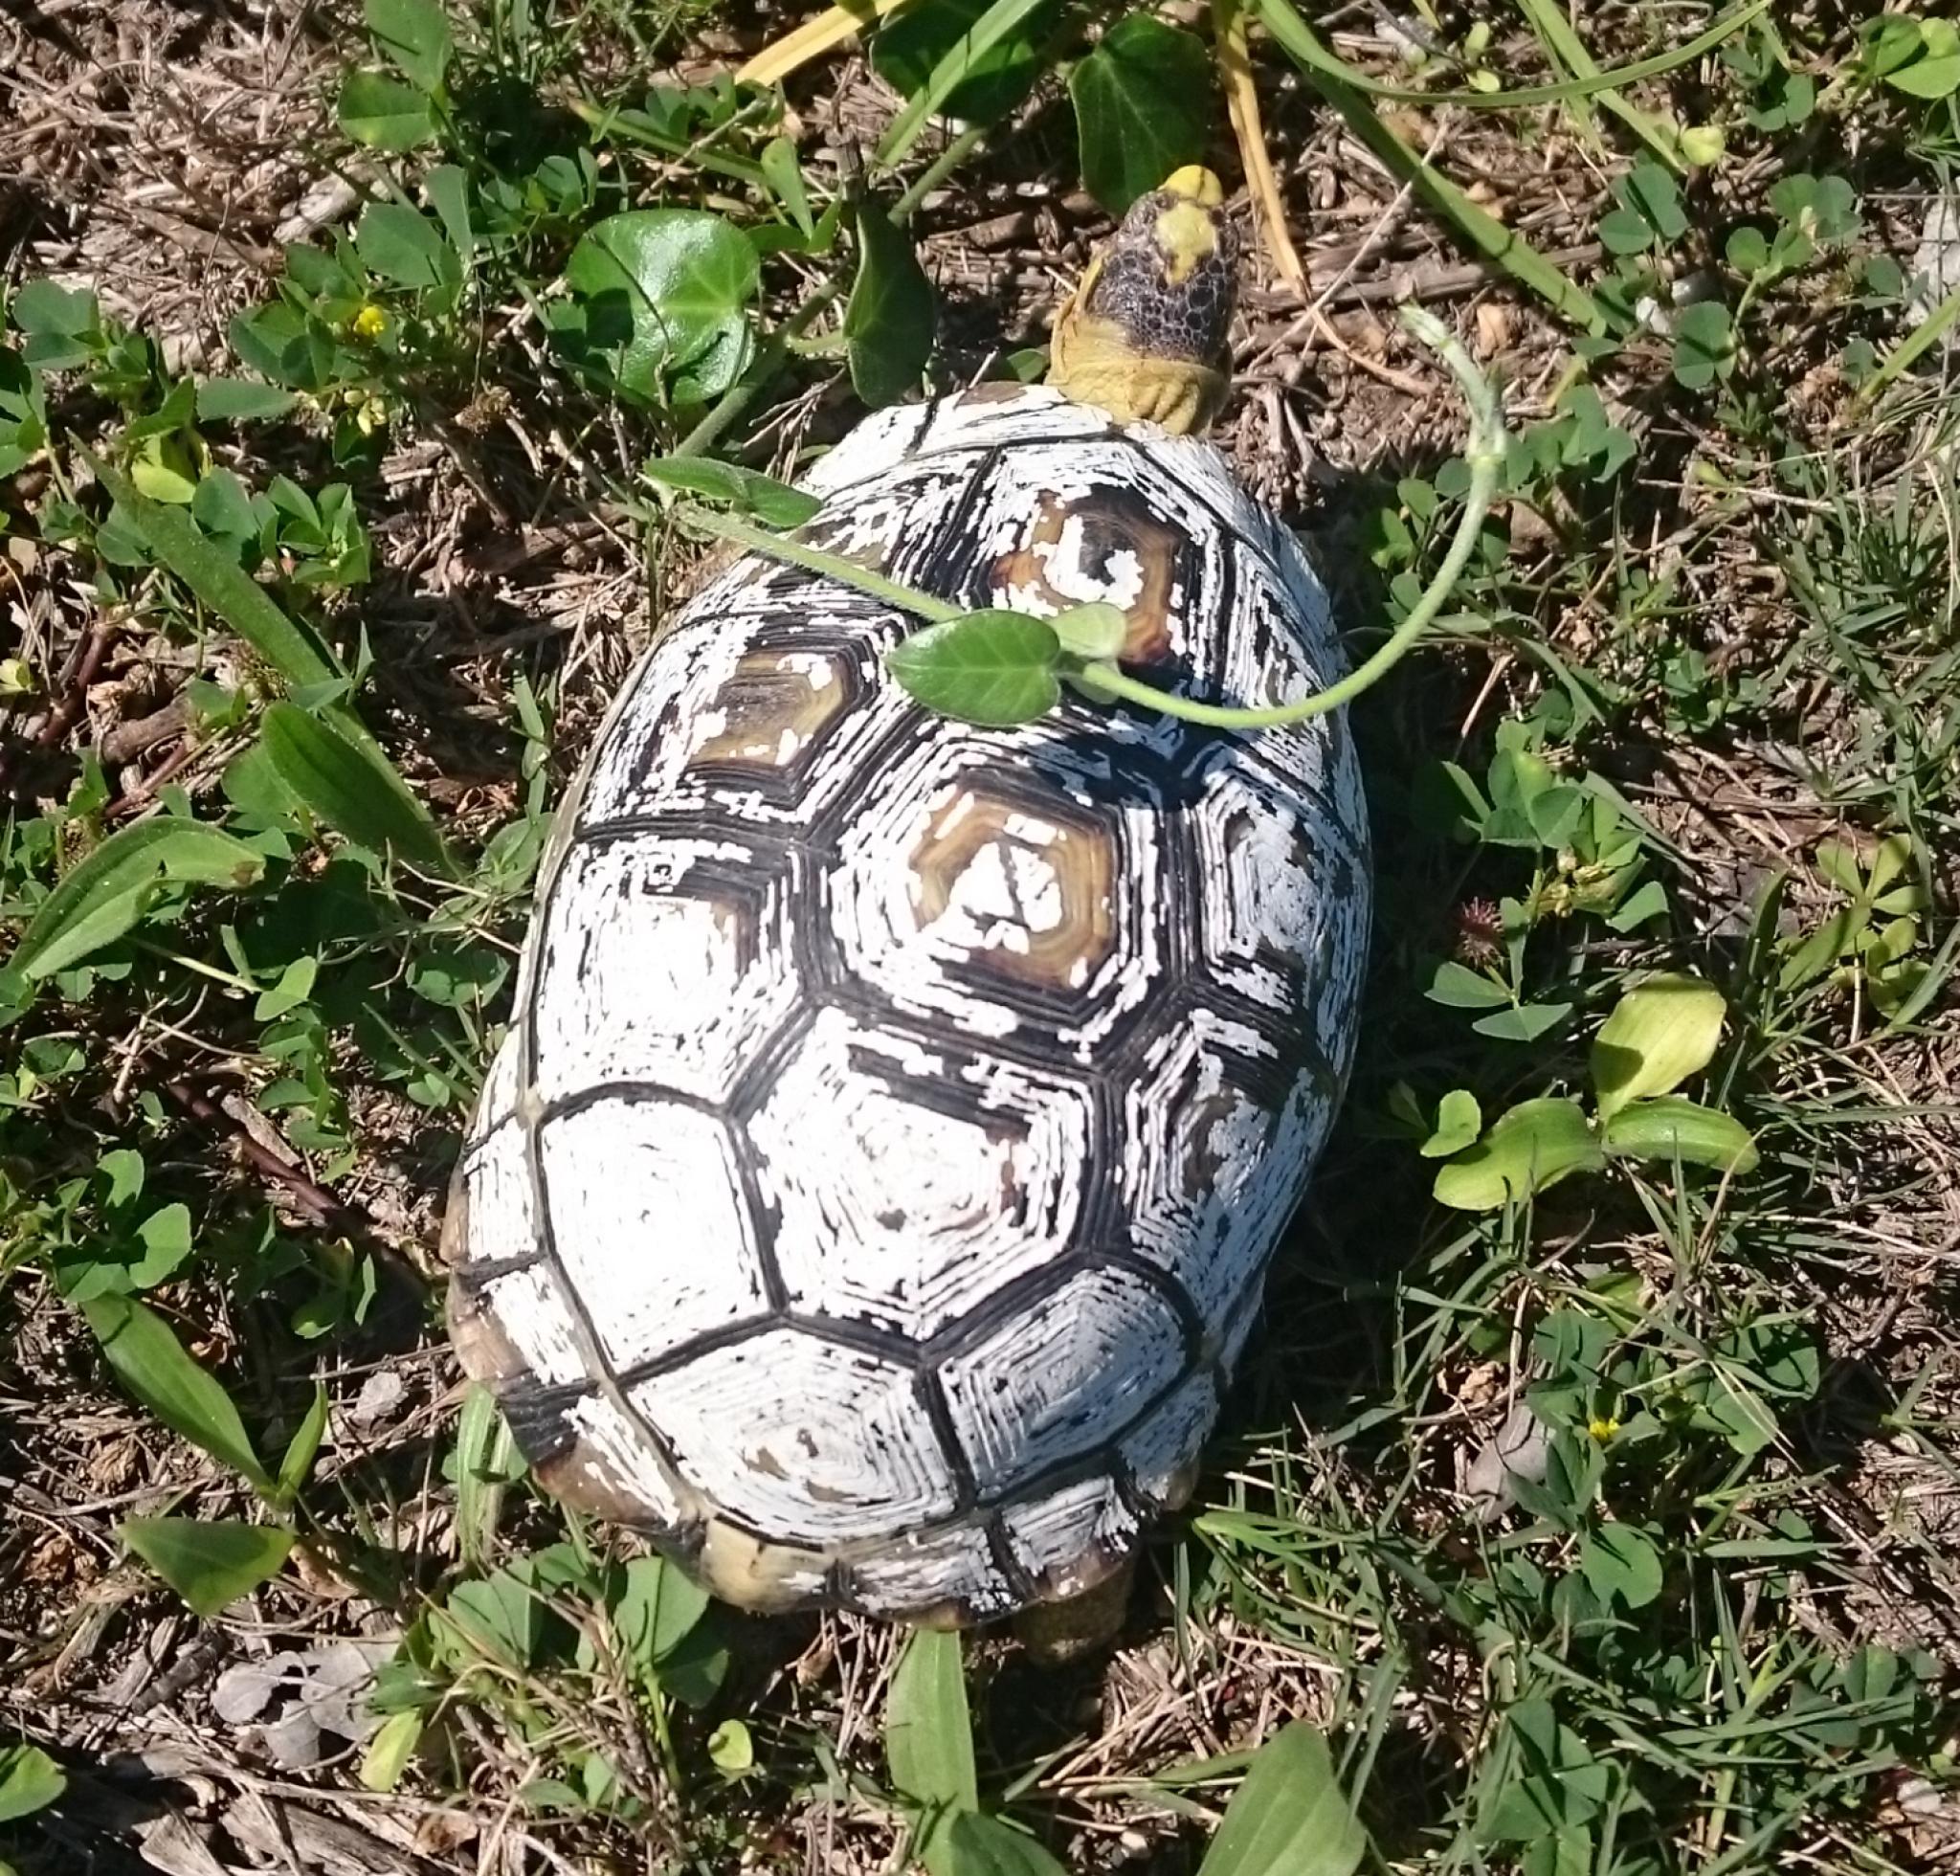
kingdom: Animalia
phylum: Chordata
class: Testudines
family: Testudinidae
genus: Chersina
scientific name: Chersina angulata
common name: South african bowsprit tortoise
